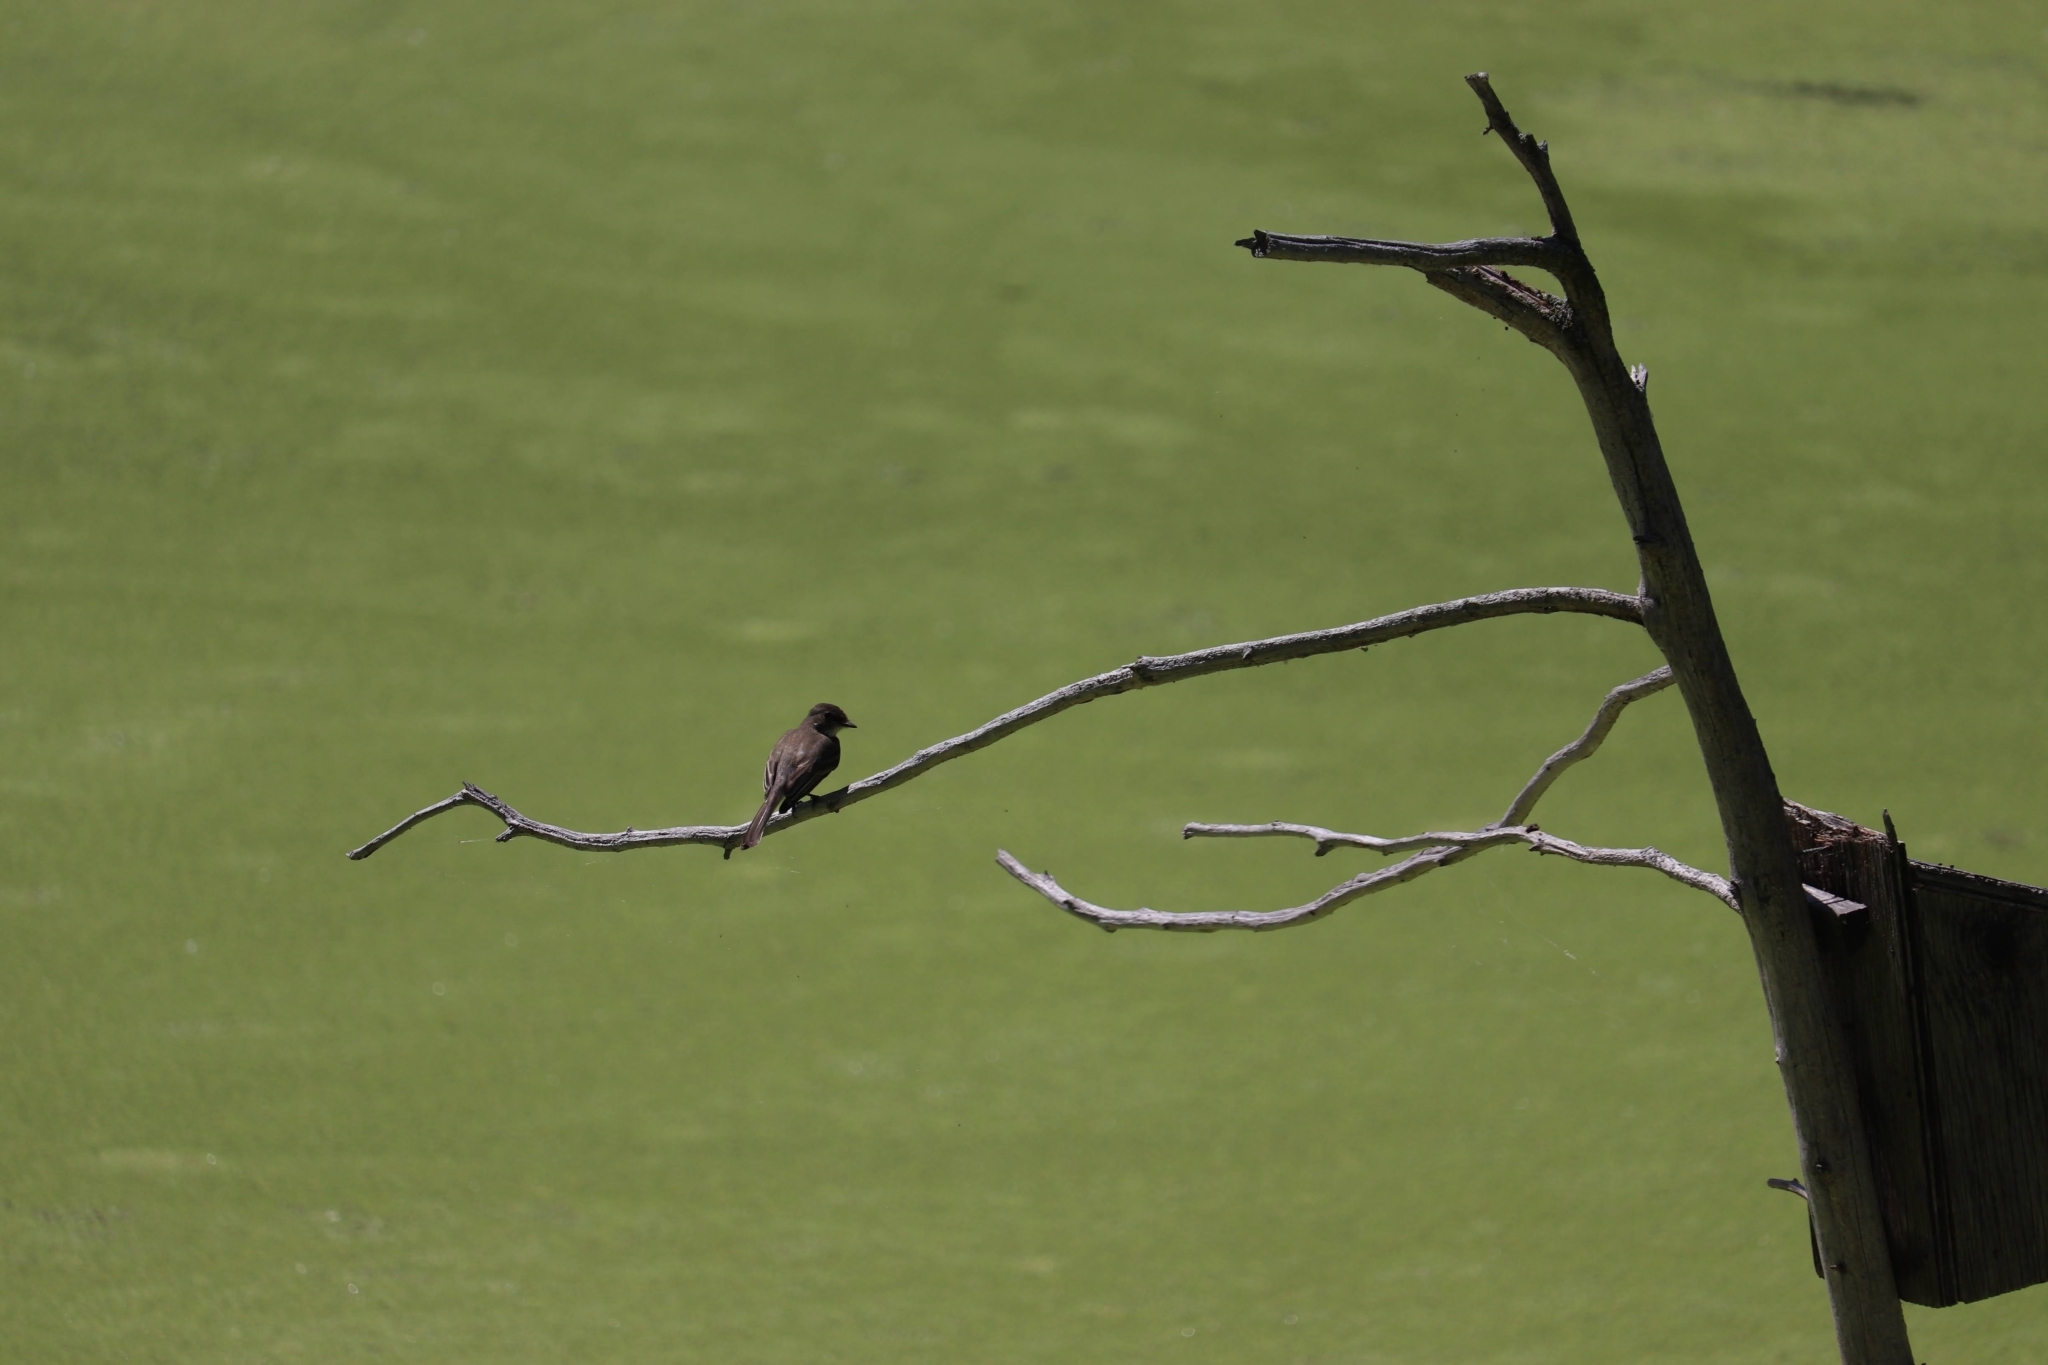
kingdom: Animalia
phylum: Chordata
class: Aves
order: Passeriformes
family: Tyrannidae
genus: Sayornis
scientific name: Sayornis phoebe
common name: Eastern phoebe
